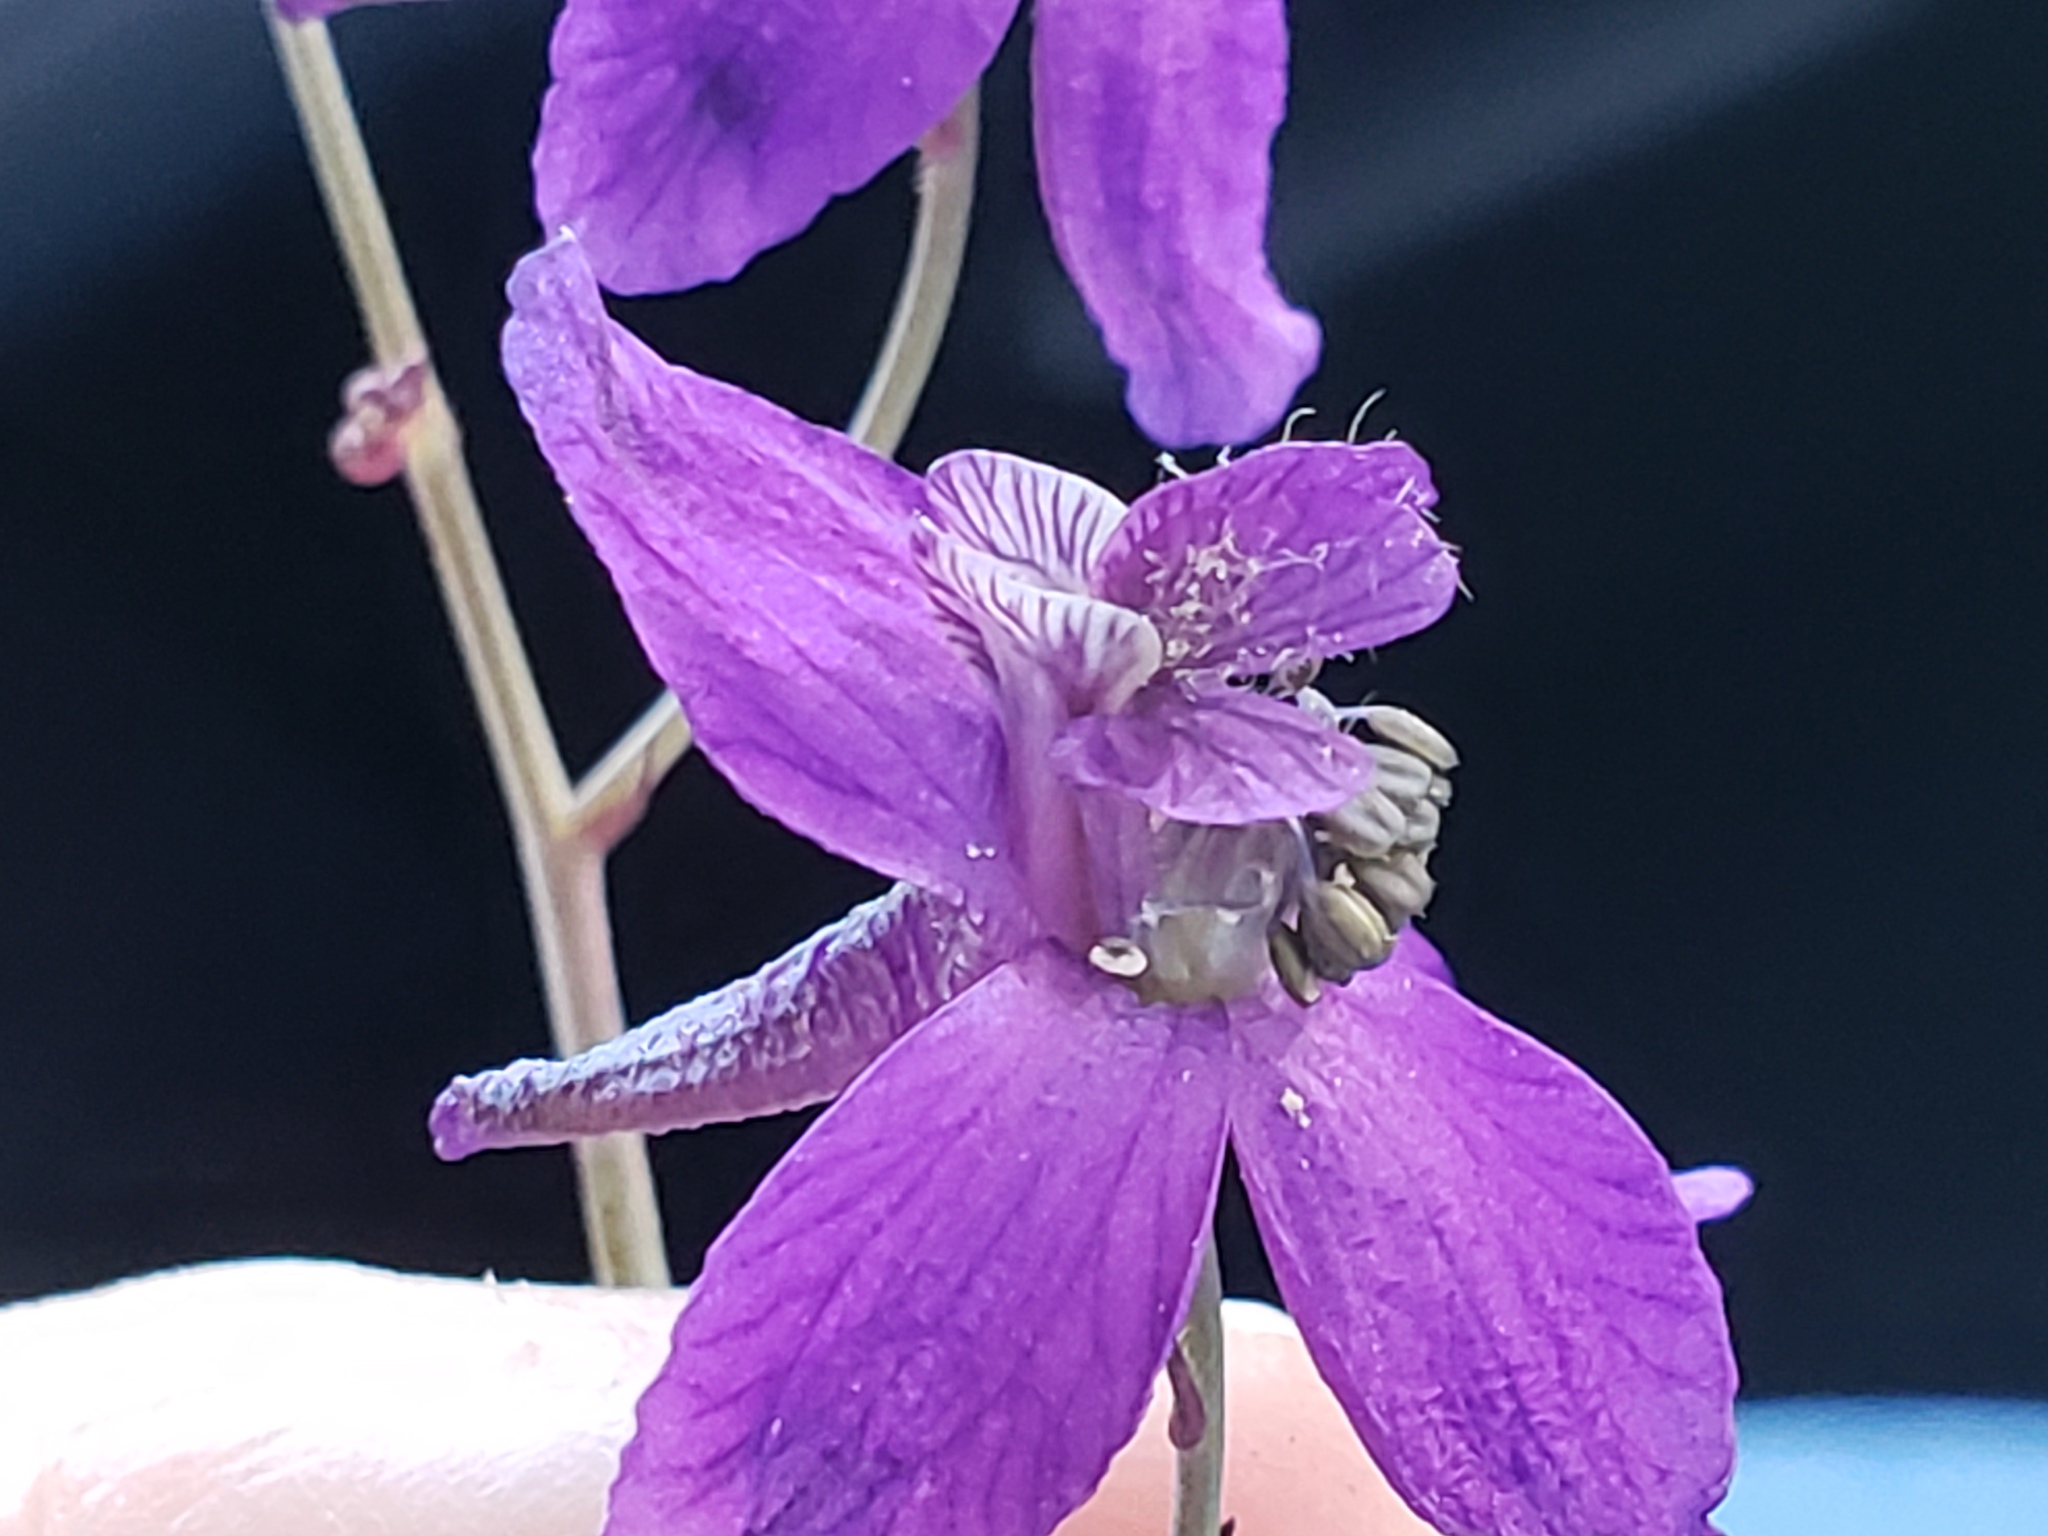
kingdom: Plantae
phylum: Tracheophyta
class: Magnoliopsida
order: Ranunculales
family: Ranunculaceae
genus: Delphinium
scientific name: Delphinium patens
